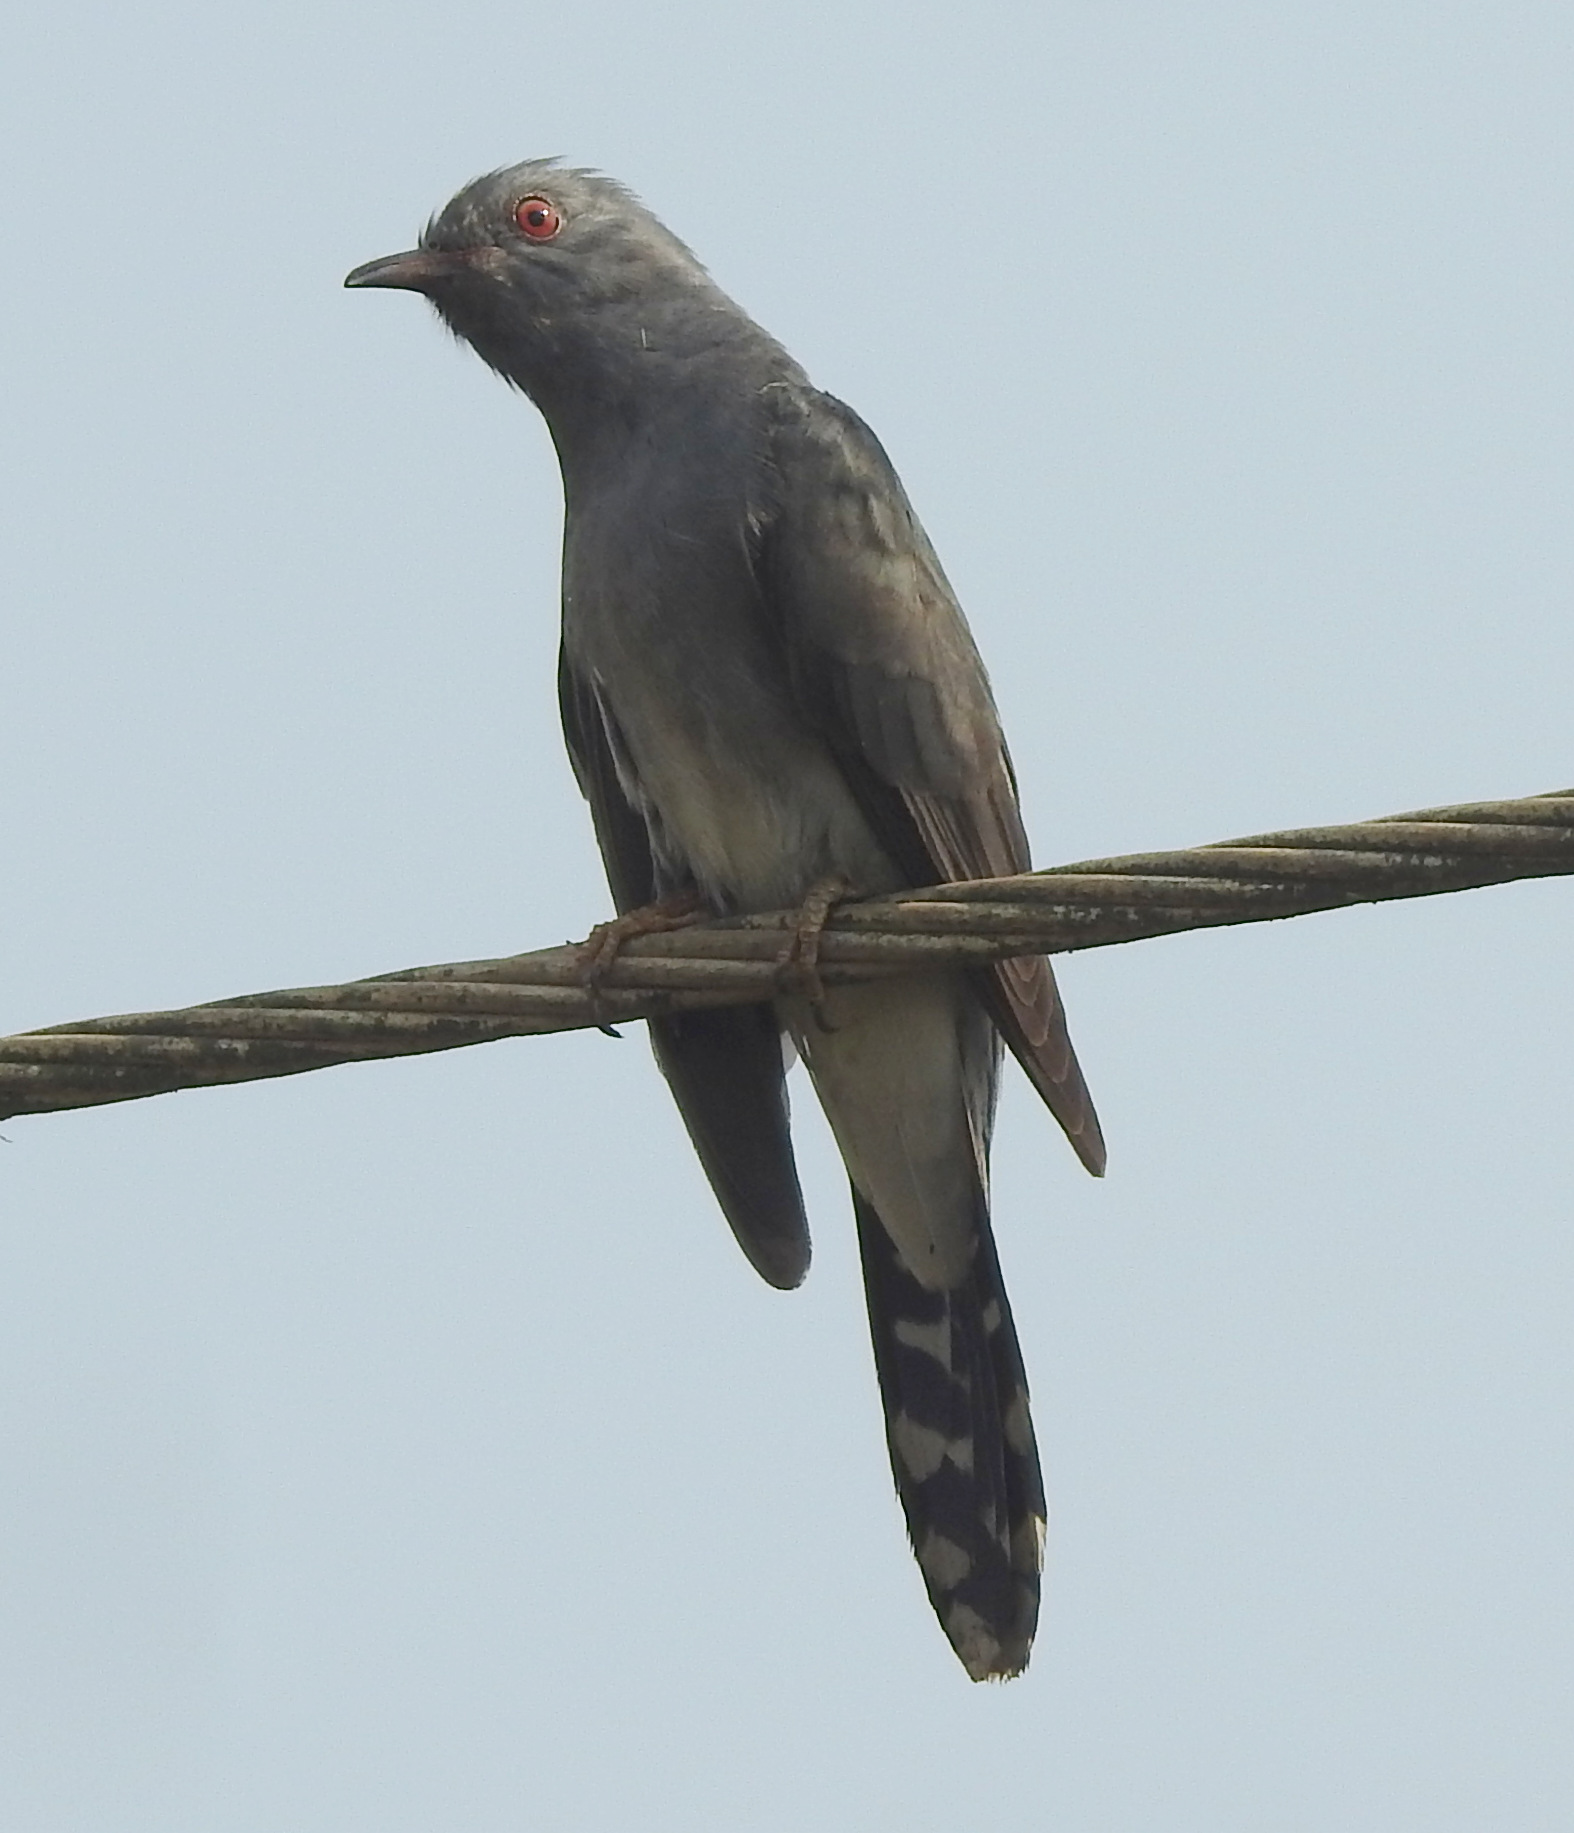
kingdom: Animalia
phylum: Chordata
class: Aves
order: Cuculiformes
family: Cuculidae
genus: Cacomantis
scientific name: Cacomantis passerinus
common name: Grey-bellied cuckoo
